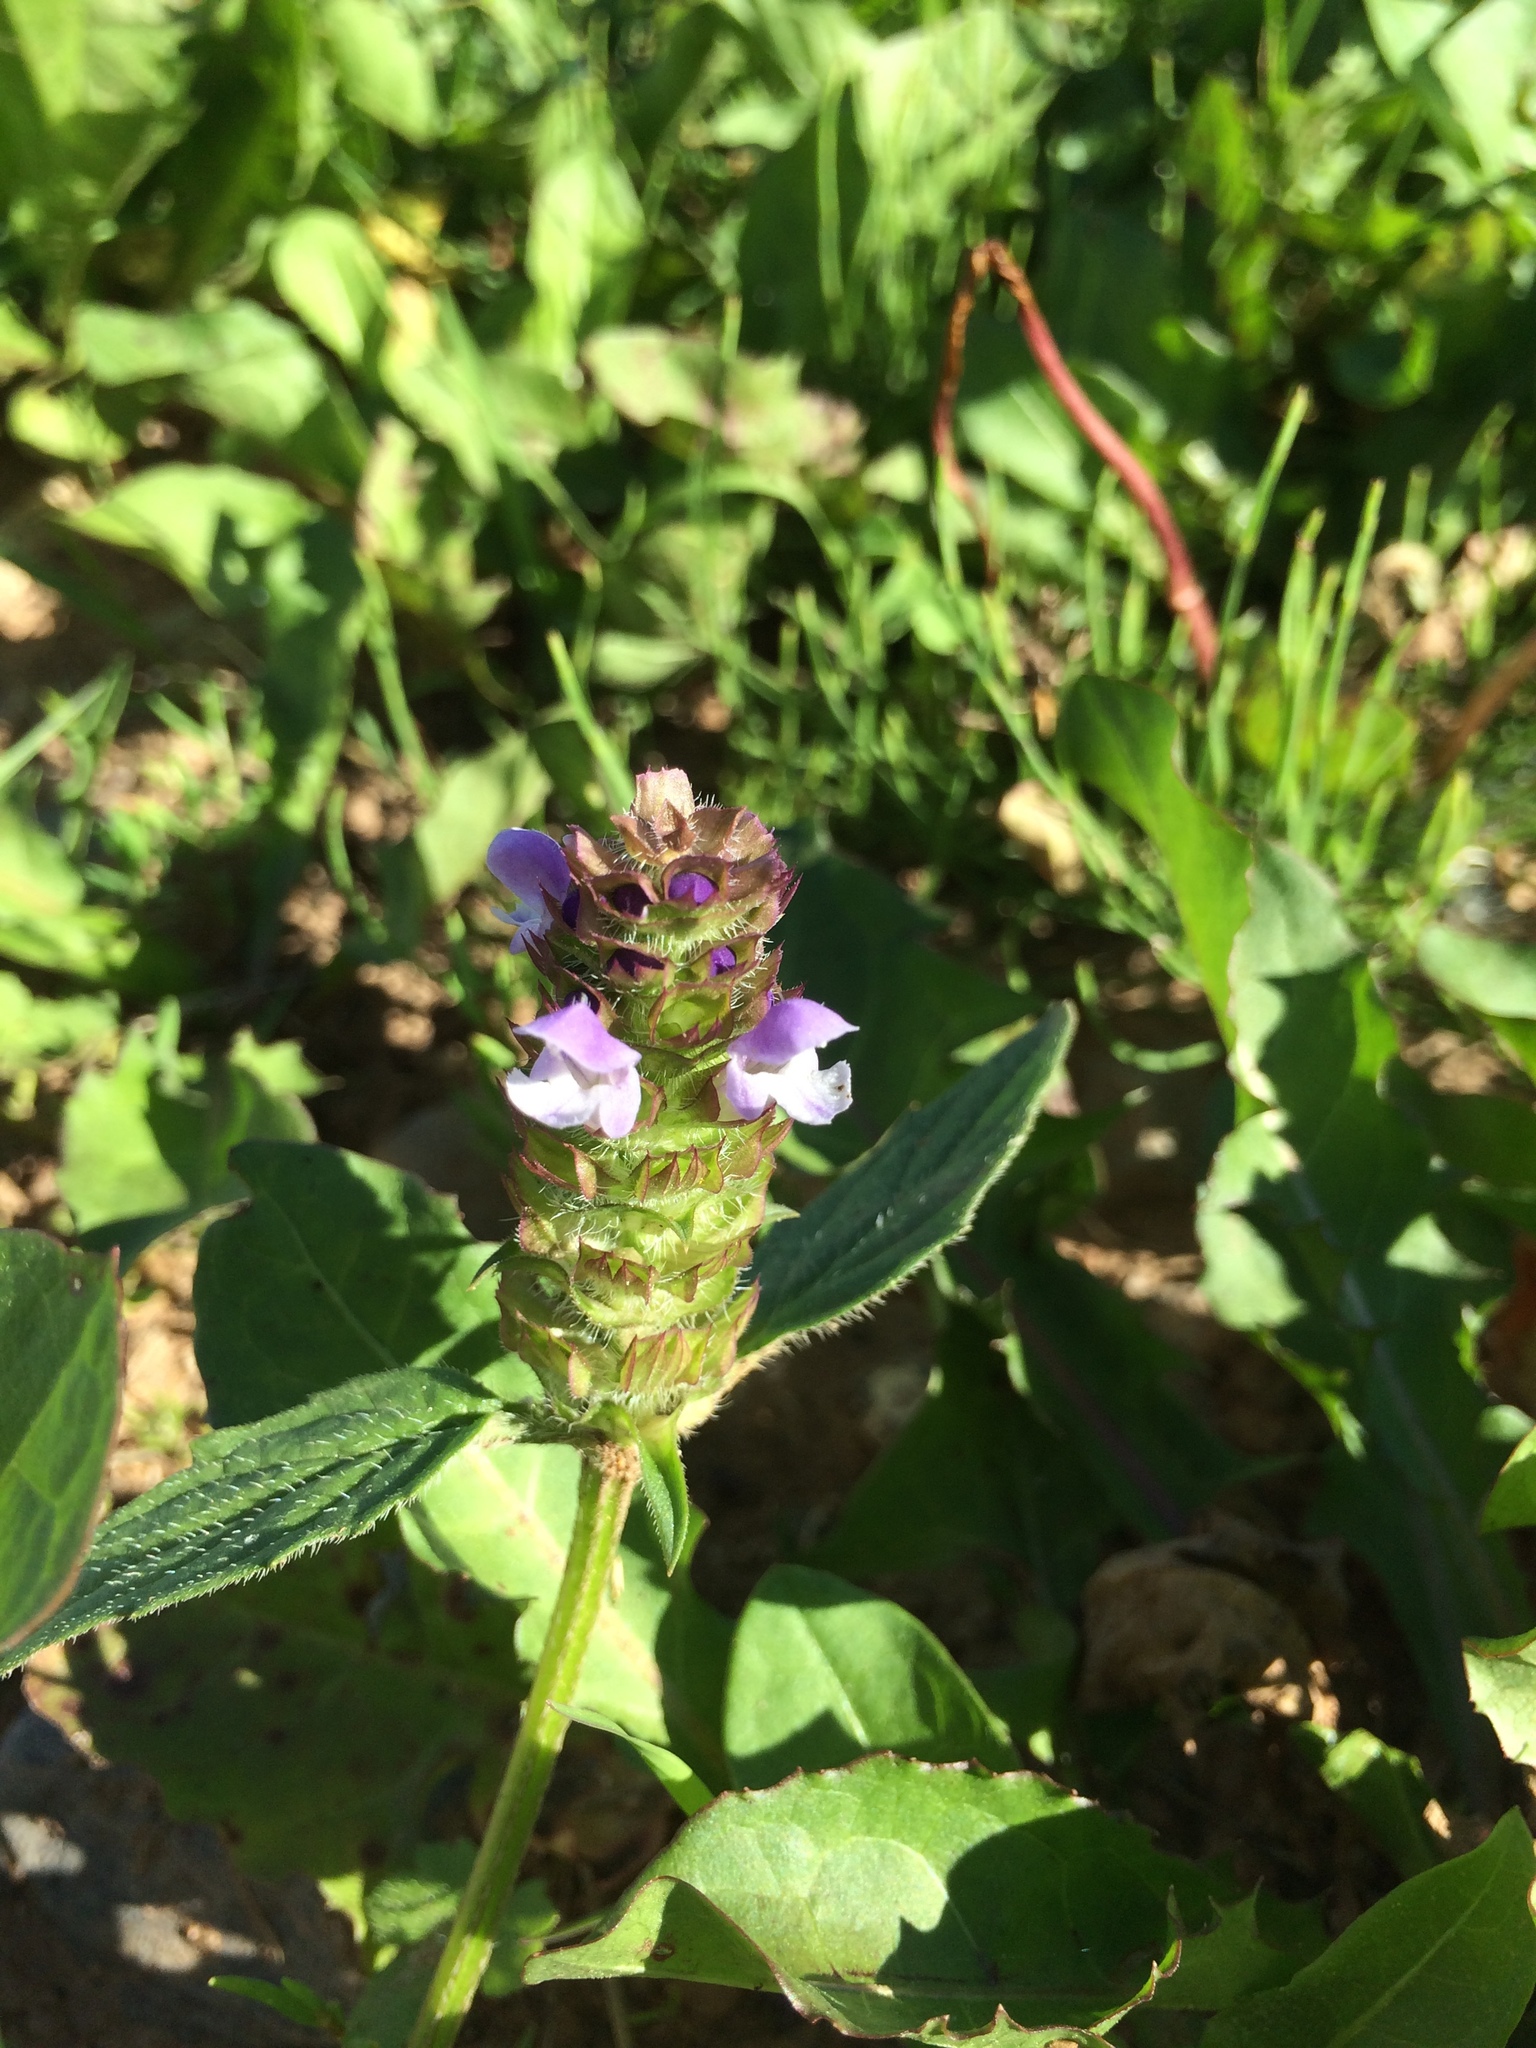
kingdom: Plantae
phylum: Tracheophyta
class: Magnoliopsida
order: Lamiales
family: Lamiaceae
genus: Prunella
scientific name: Prunella vulgaris
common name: Heal-all
